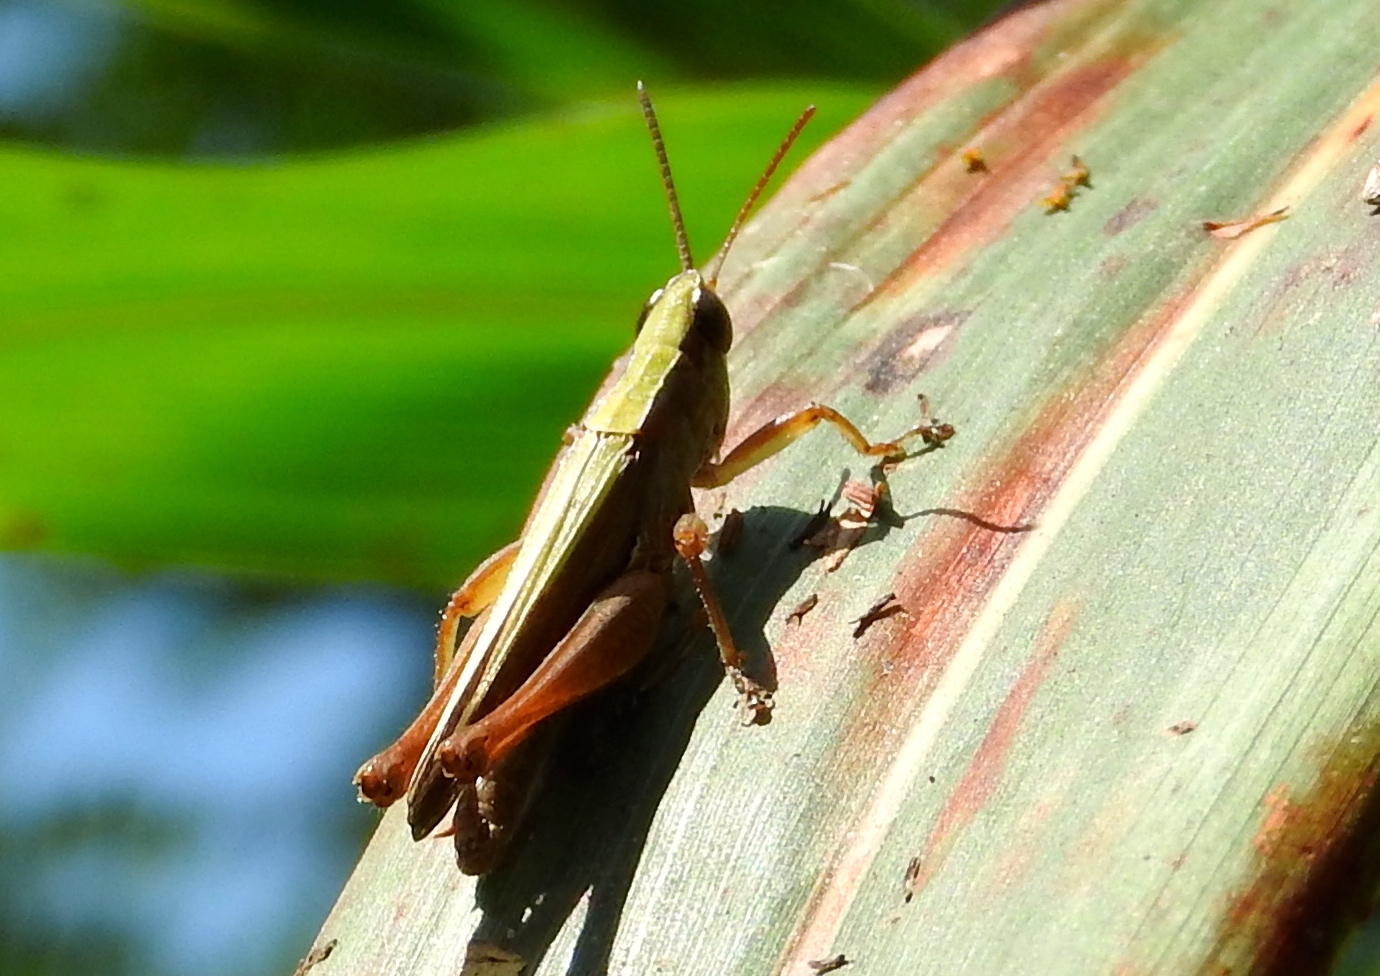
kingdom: Animalia
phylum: Arthropoda
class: Insecta
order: Orthoptera
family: Acrididae
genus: Dichromorpha
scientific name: Dichromorpha prominula
